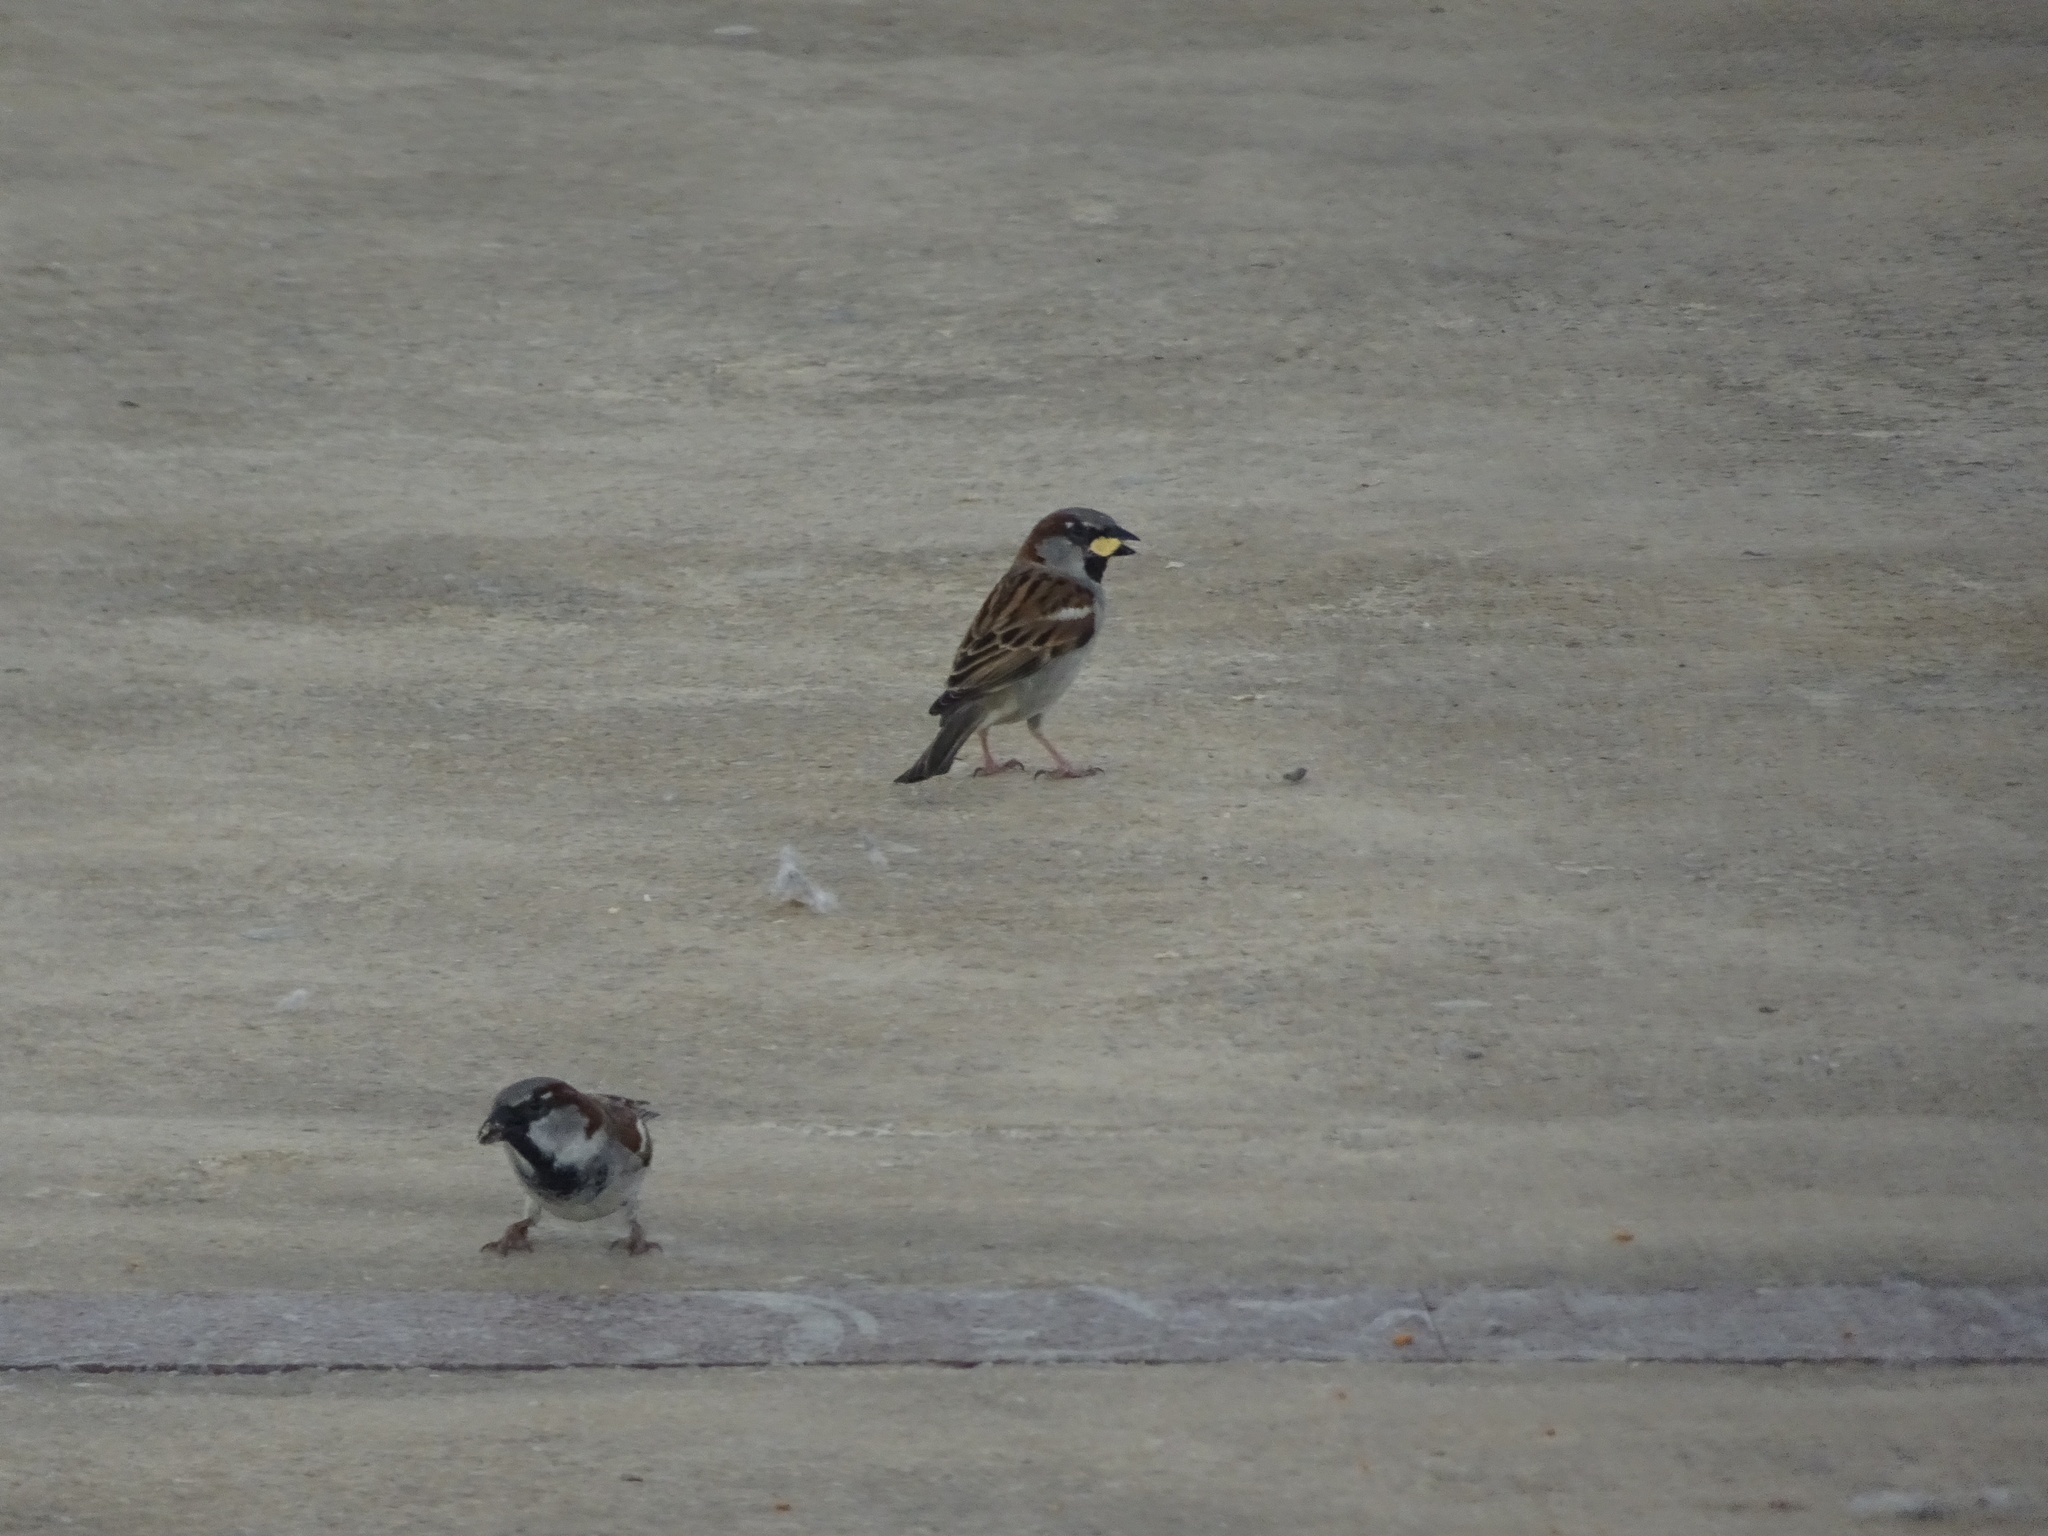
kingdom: Animalia
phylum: Chordata
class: Aves
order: Passeriformes
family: Passeridae
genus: Passer
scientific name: Passer domesticus
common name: House sparrow
